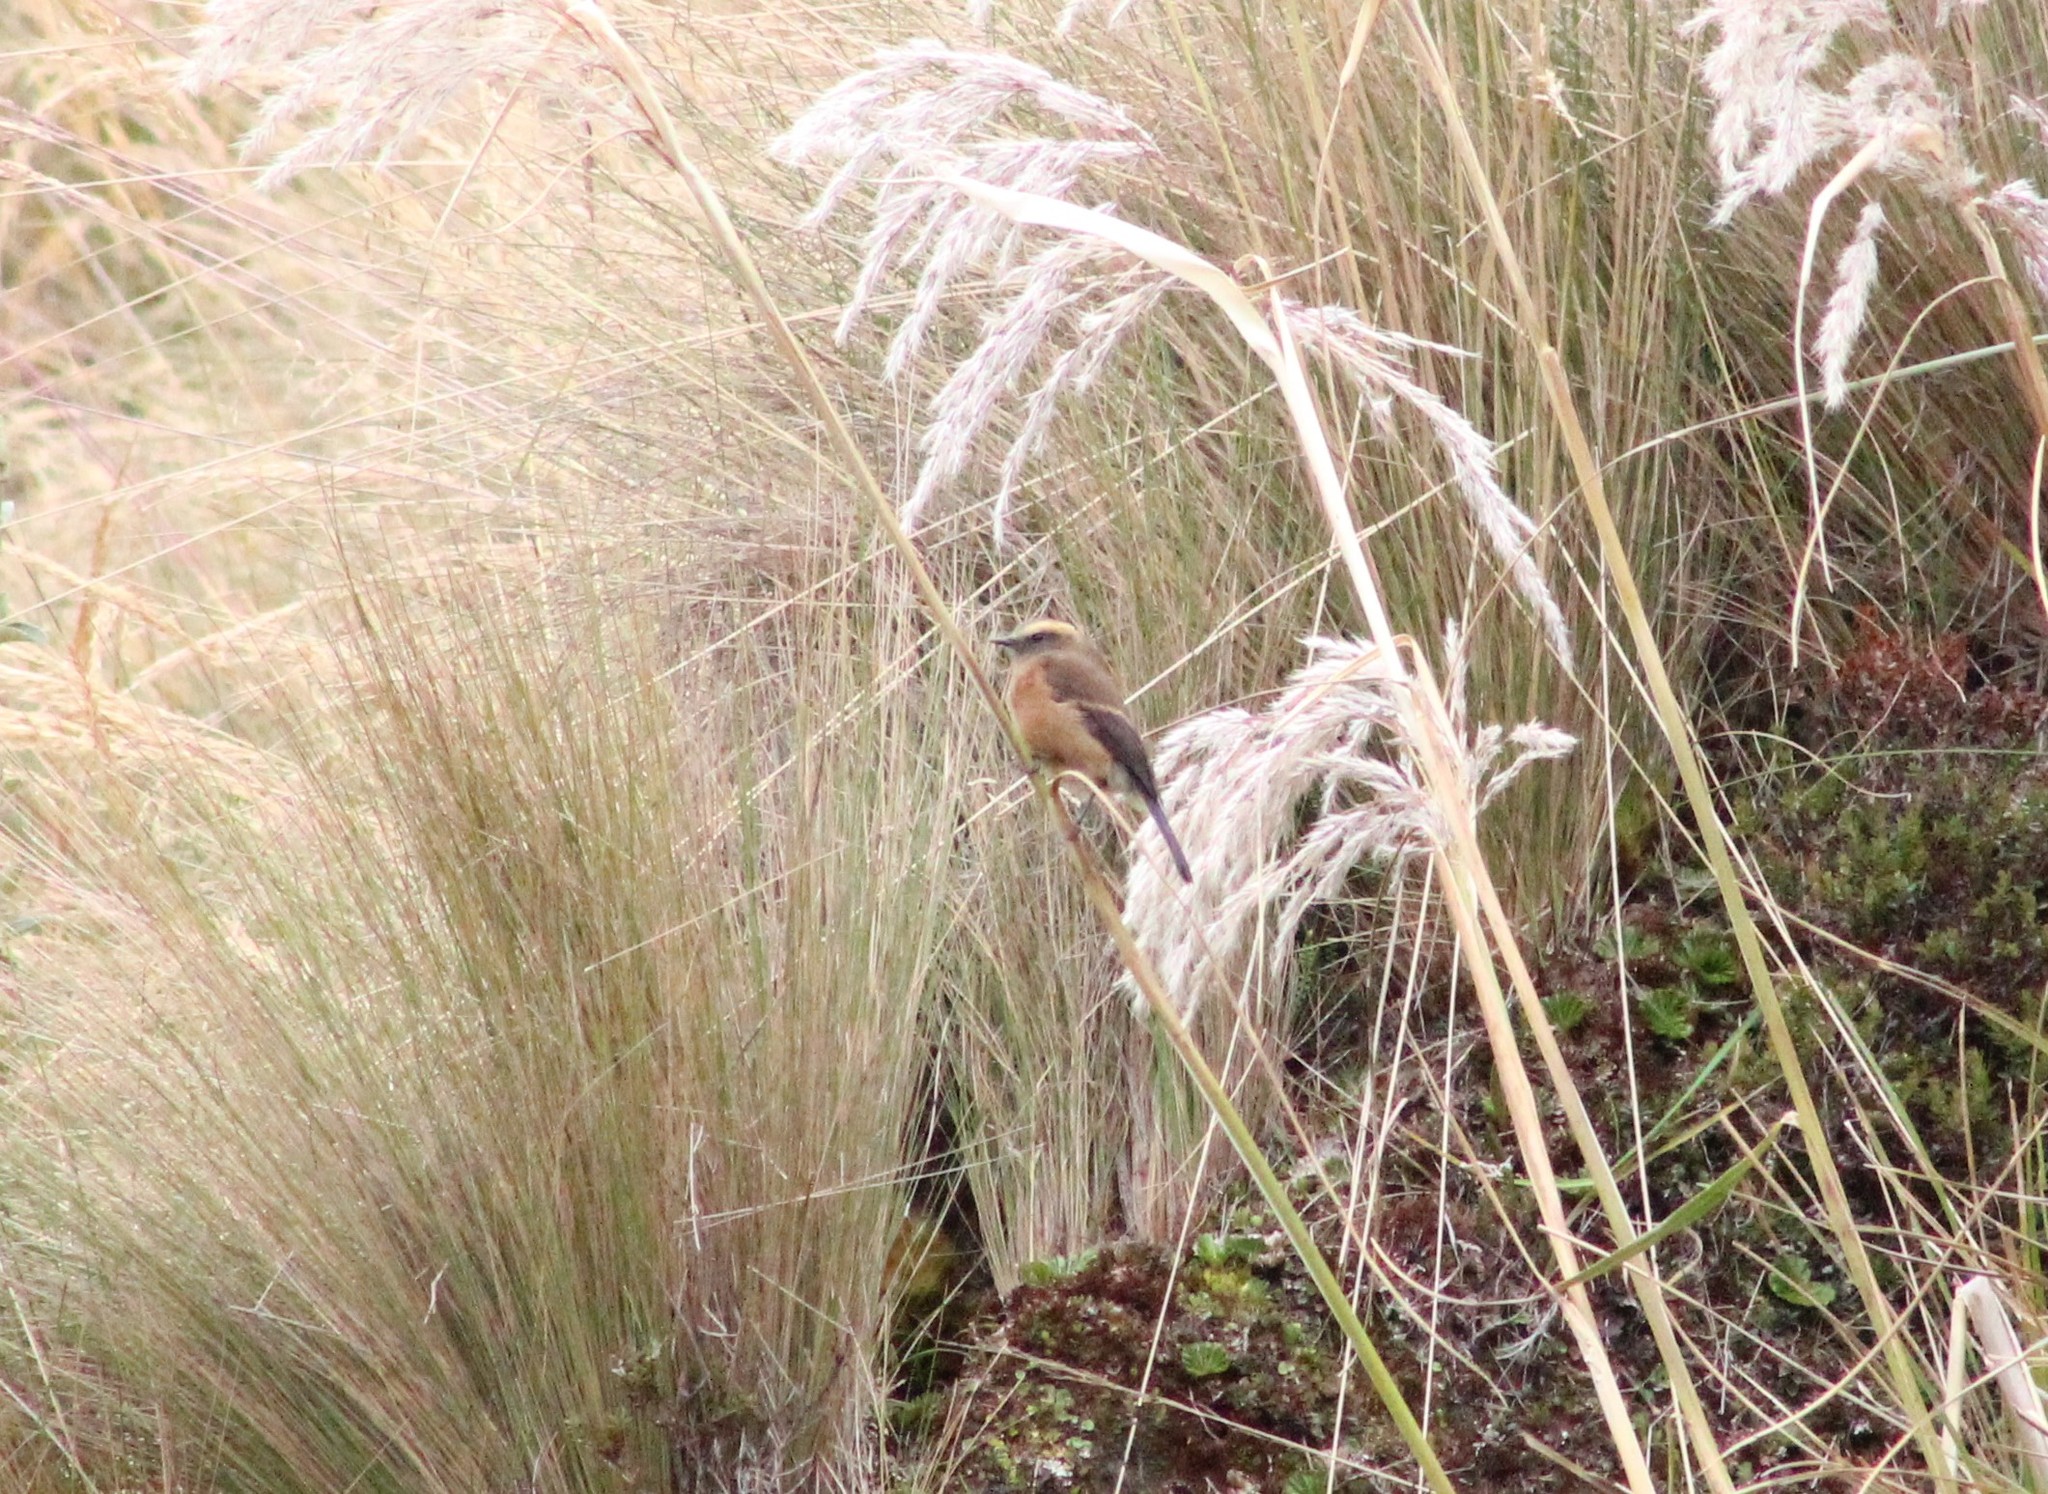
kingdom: Animalia
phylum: Chordata
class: Aves
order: Passeriformes
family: Tyrannidae
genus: Ochthoeca
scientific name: Ochthoeca fumicolor
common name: Brown-backed chat-tyrant
